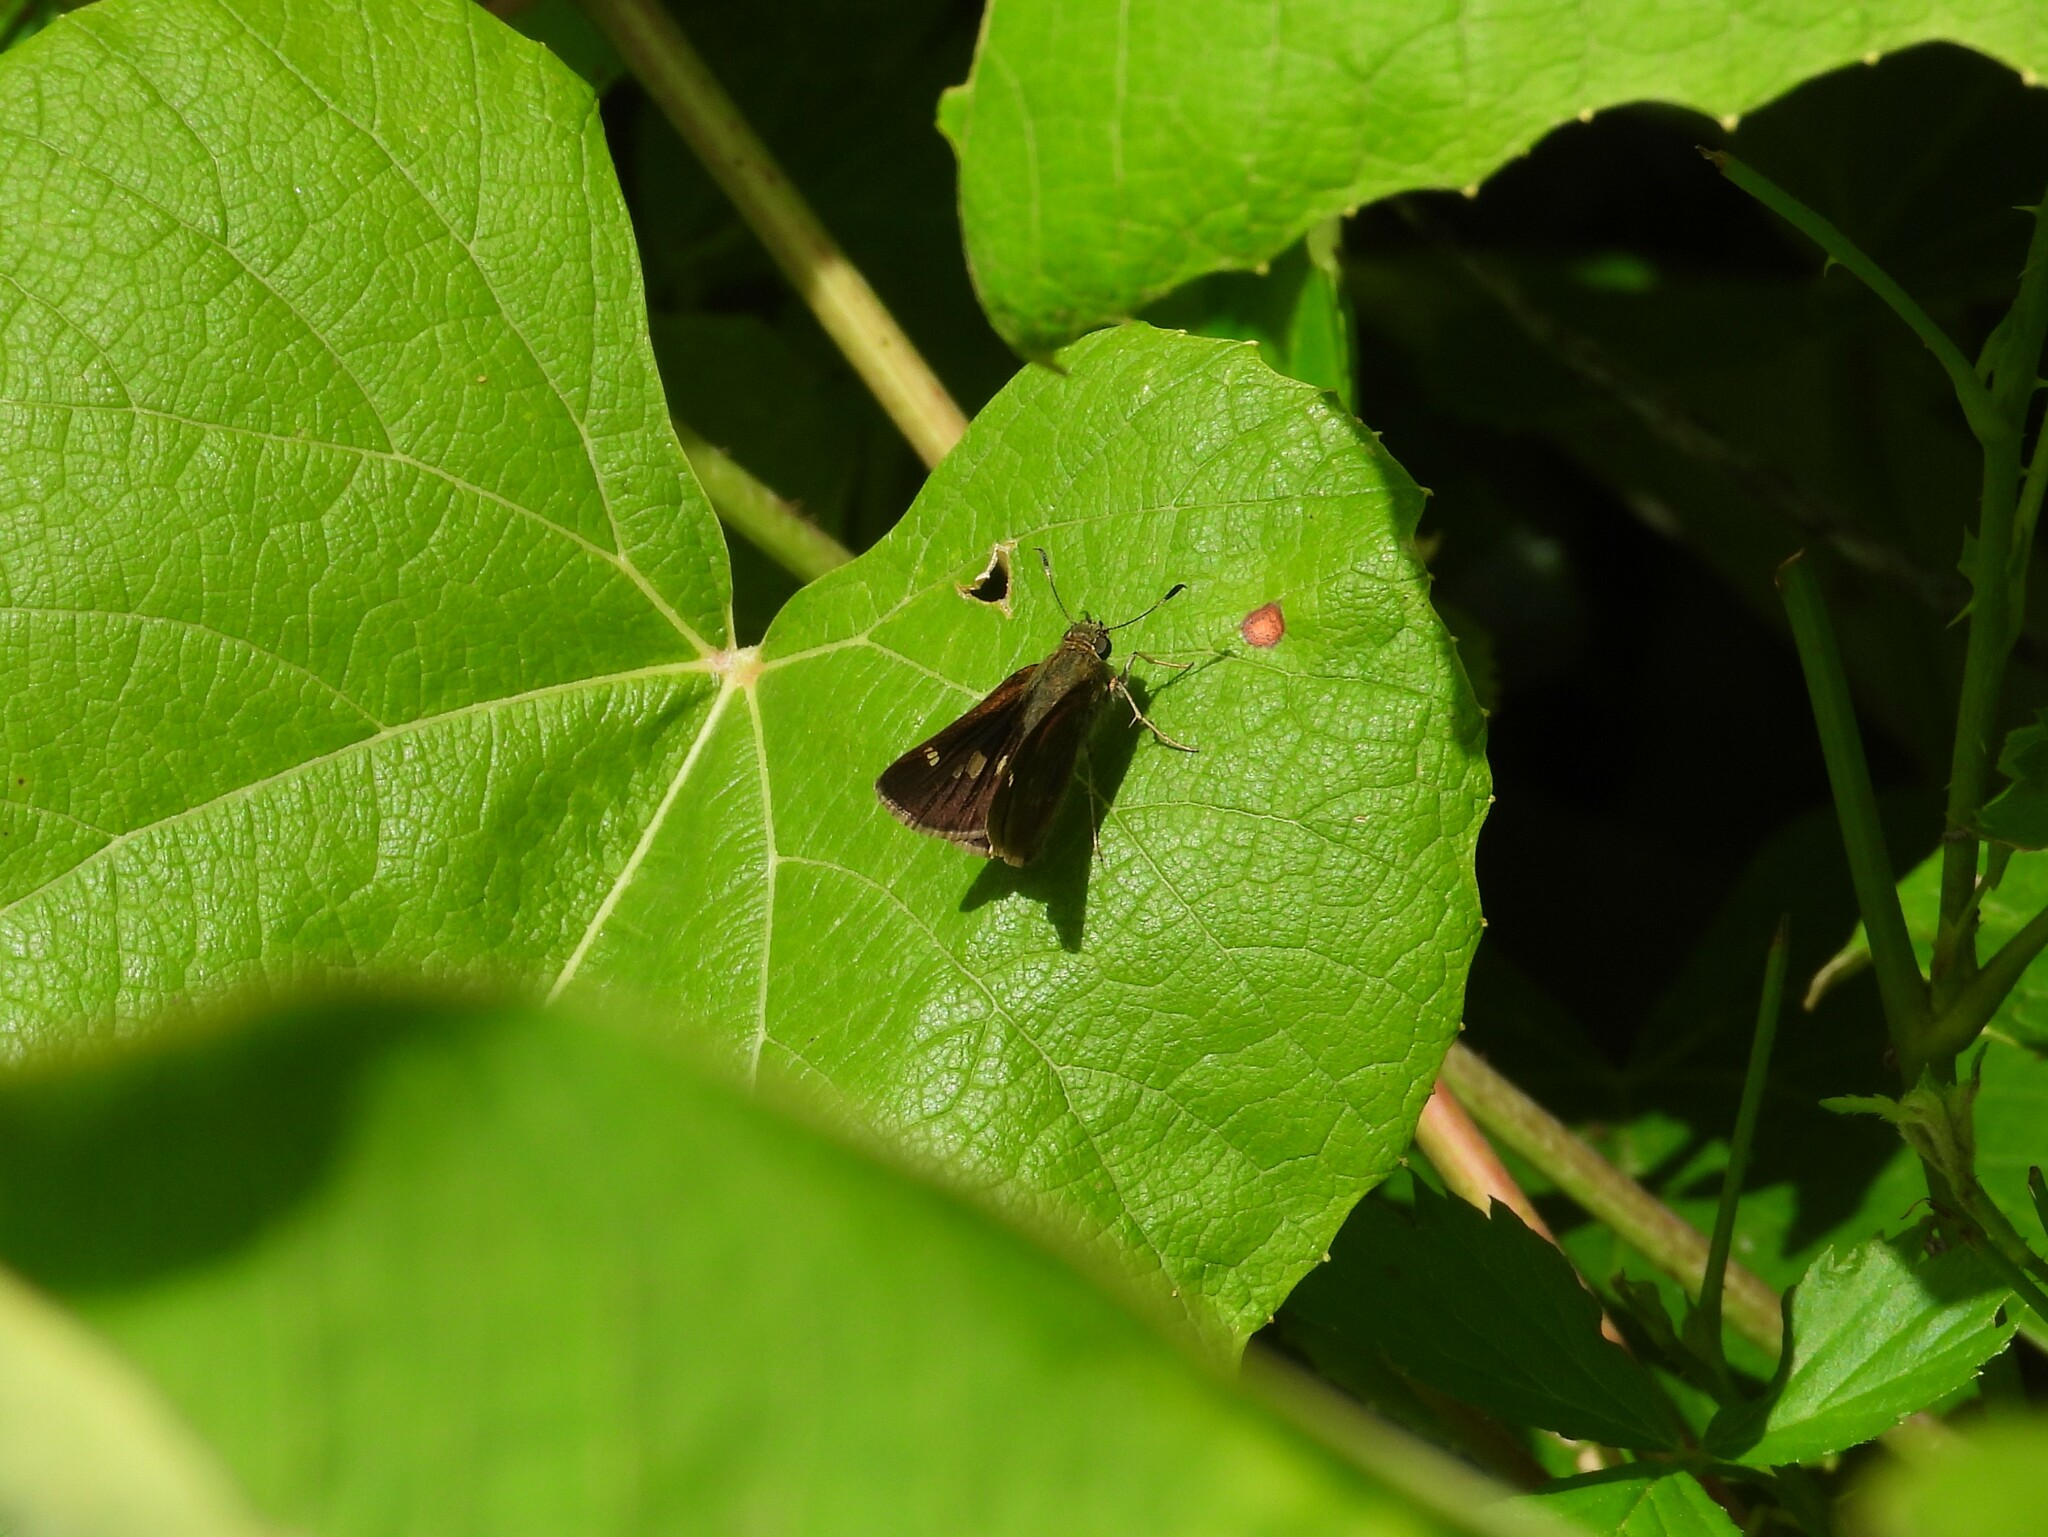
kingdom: Animalia
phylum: Arthropoda
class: Insecta
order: Lepidoptera
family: Hesperiidae
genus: Vernia
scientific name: Vernia verna
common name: Little glassywing
